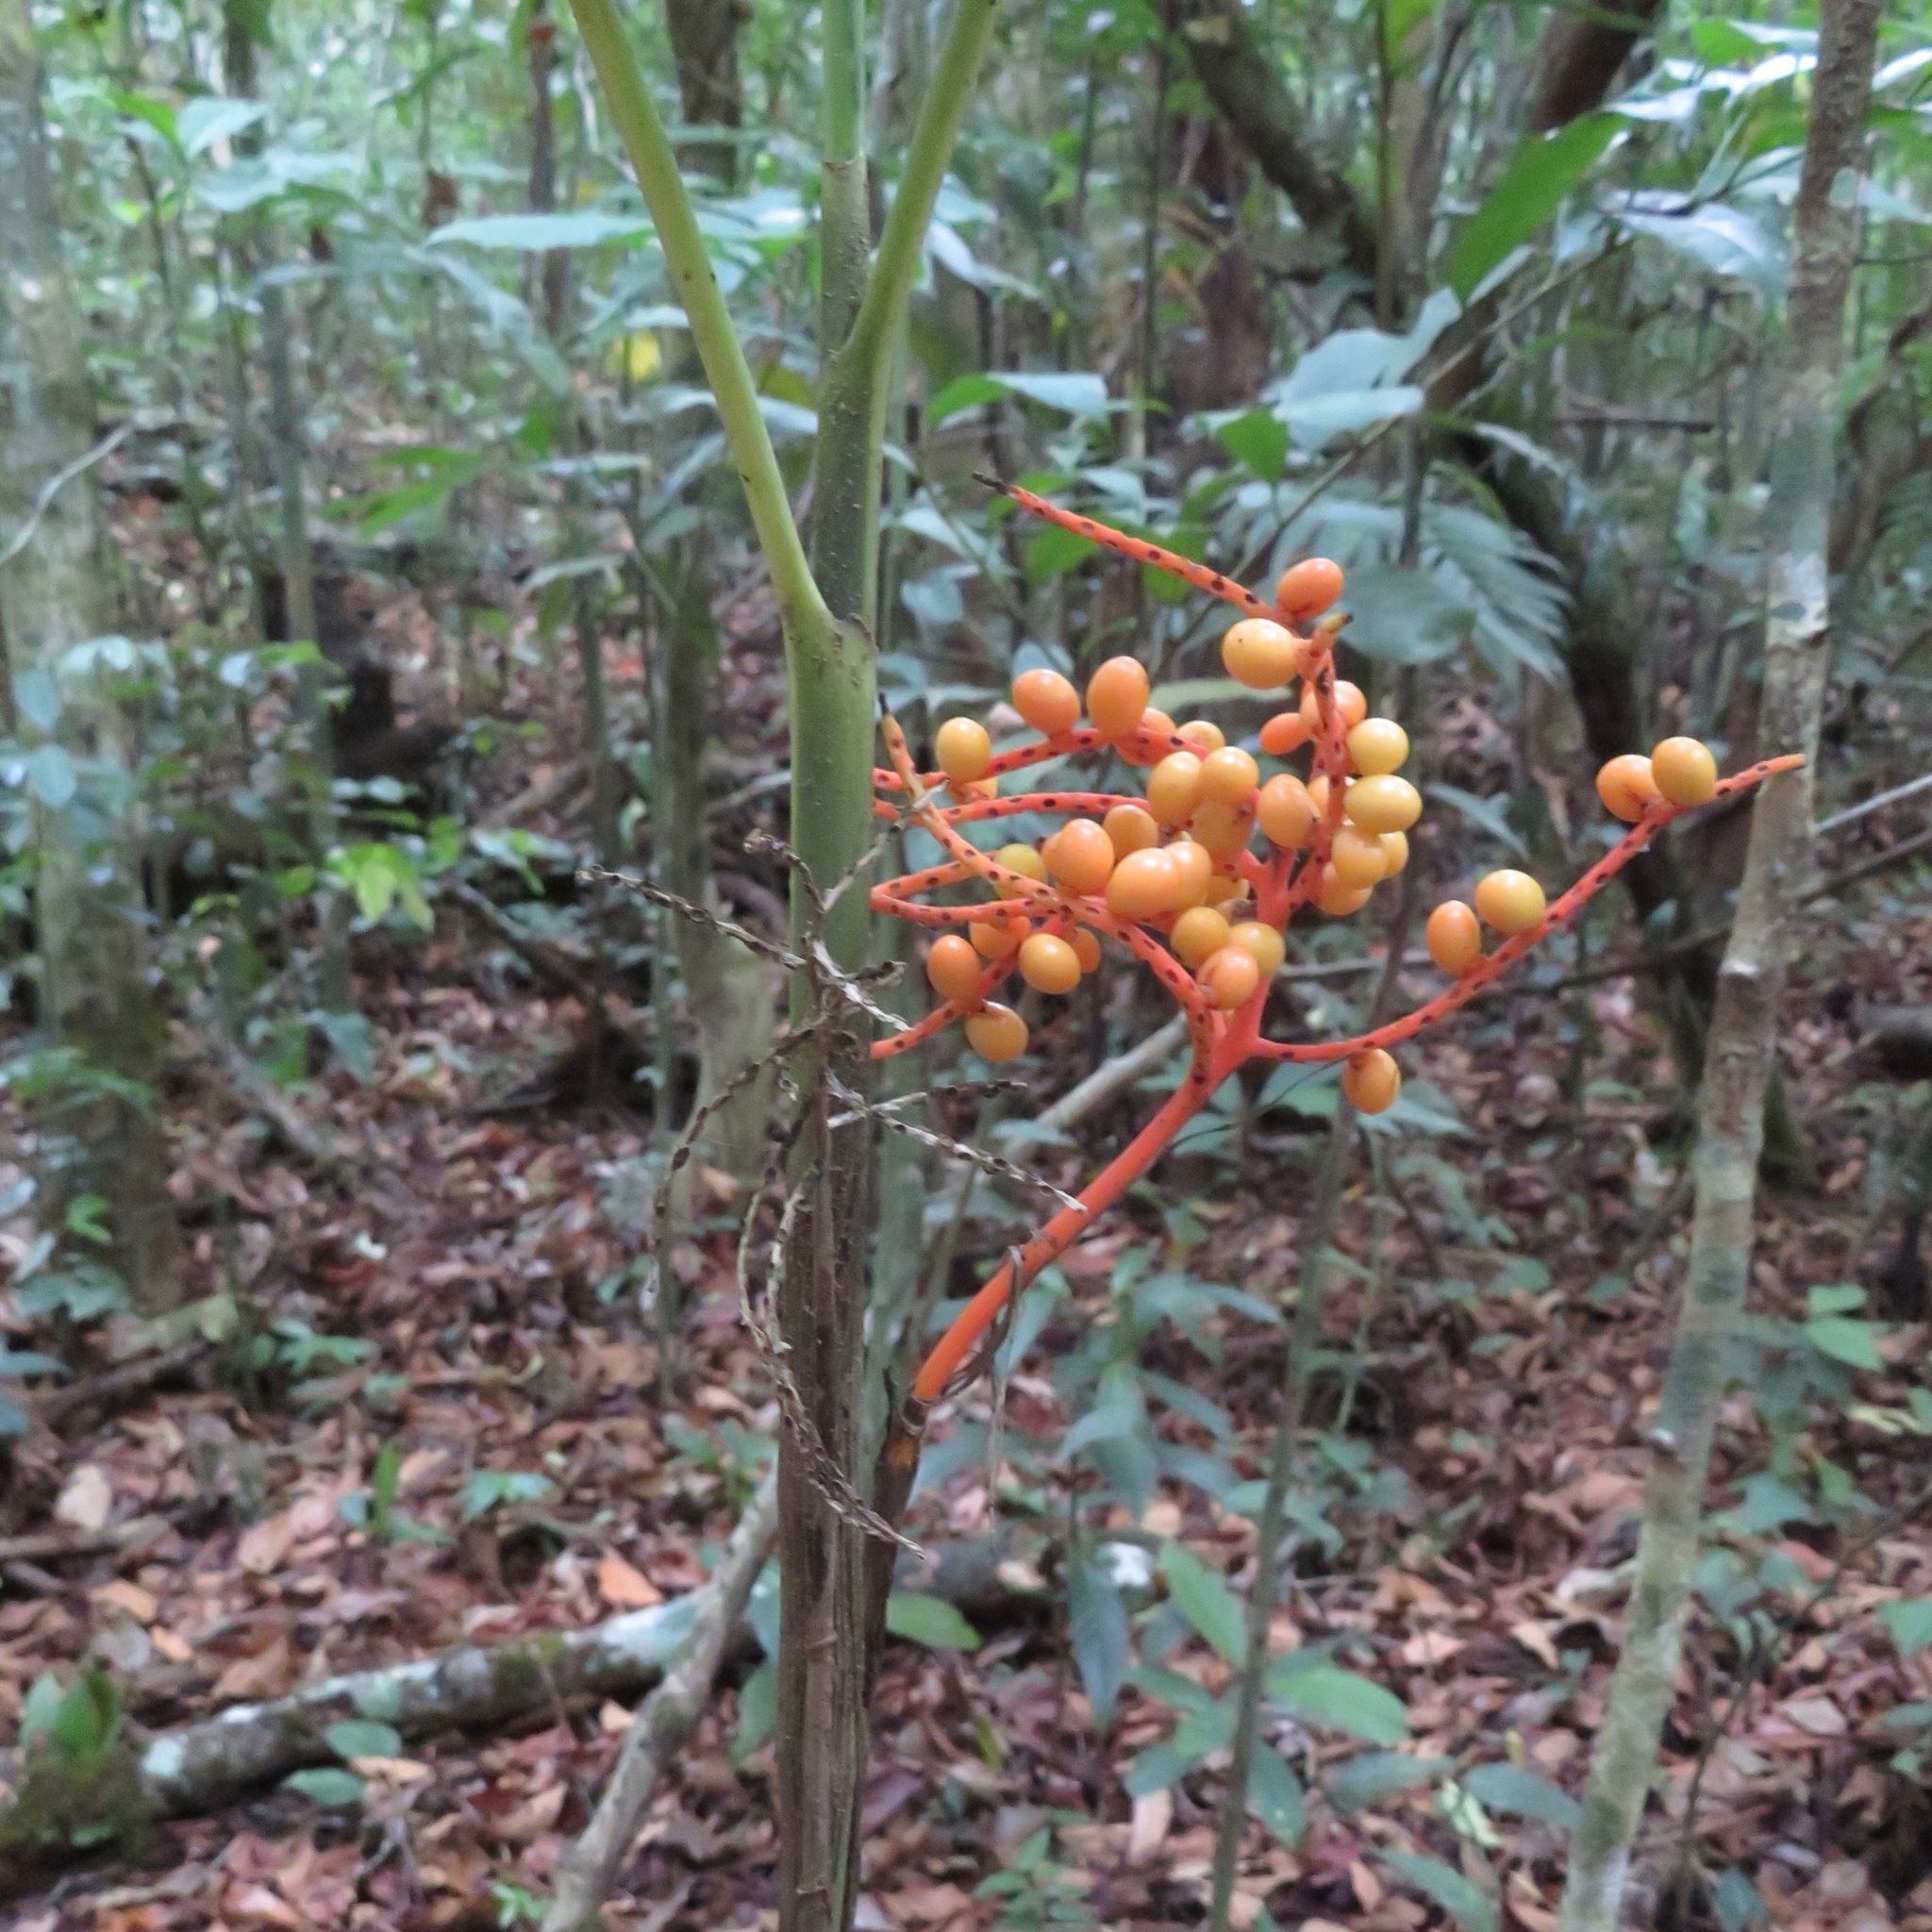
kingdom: Plantae
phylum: Tracheophyta
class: Liliopsida
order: Arecales
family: Arecaceae
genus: Chamaedorea
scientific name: Chamaedorea costaricana
